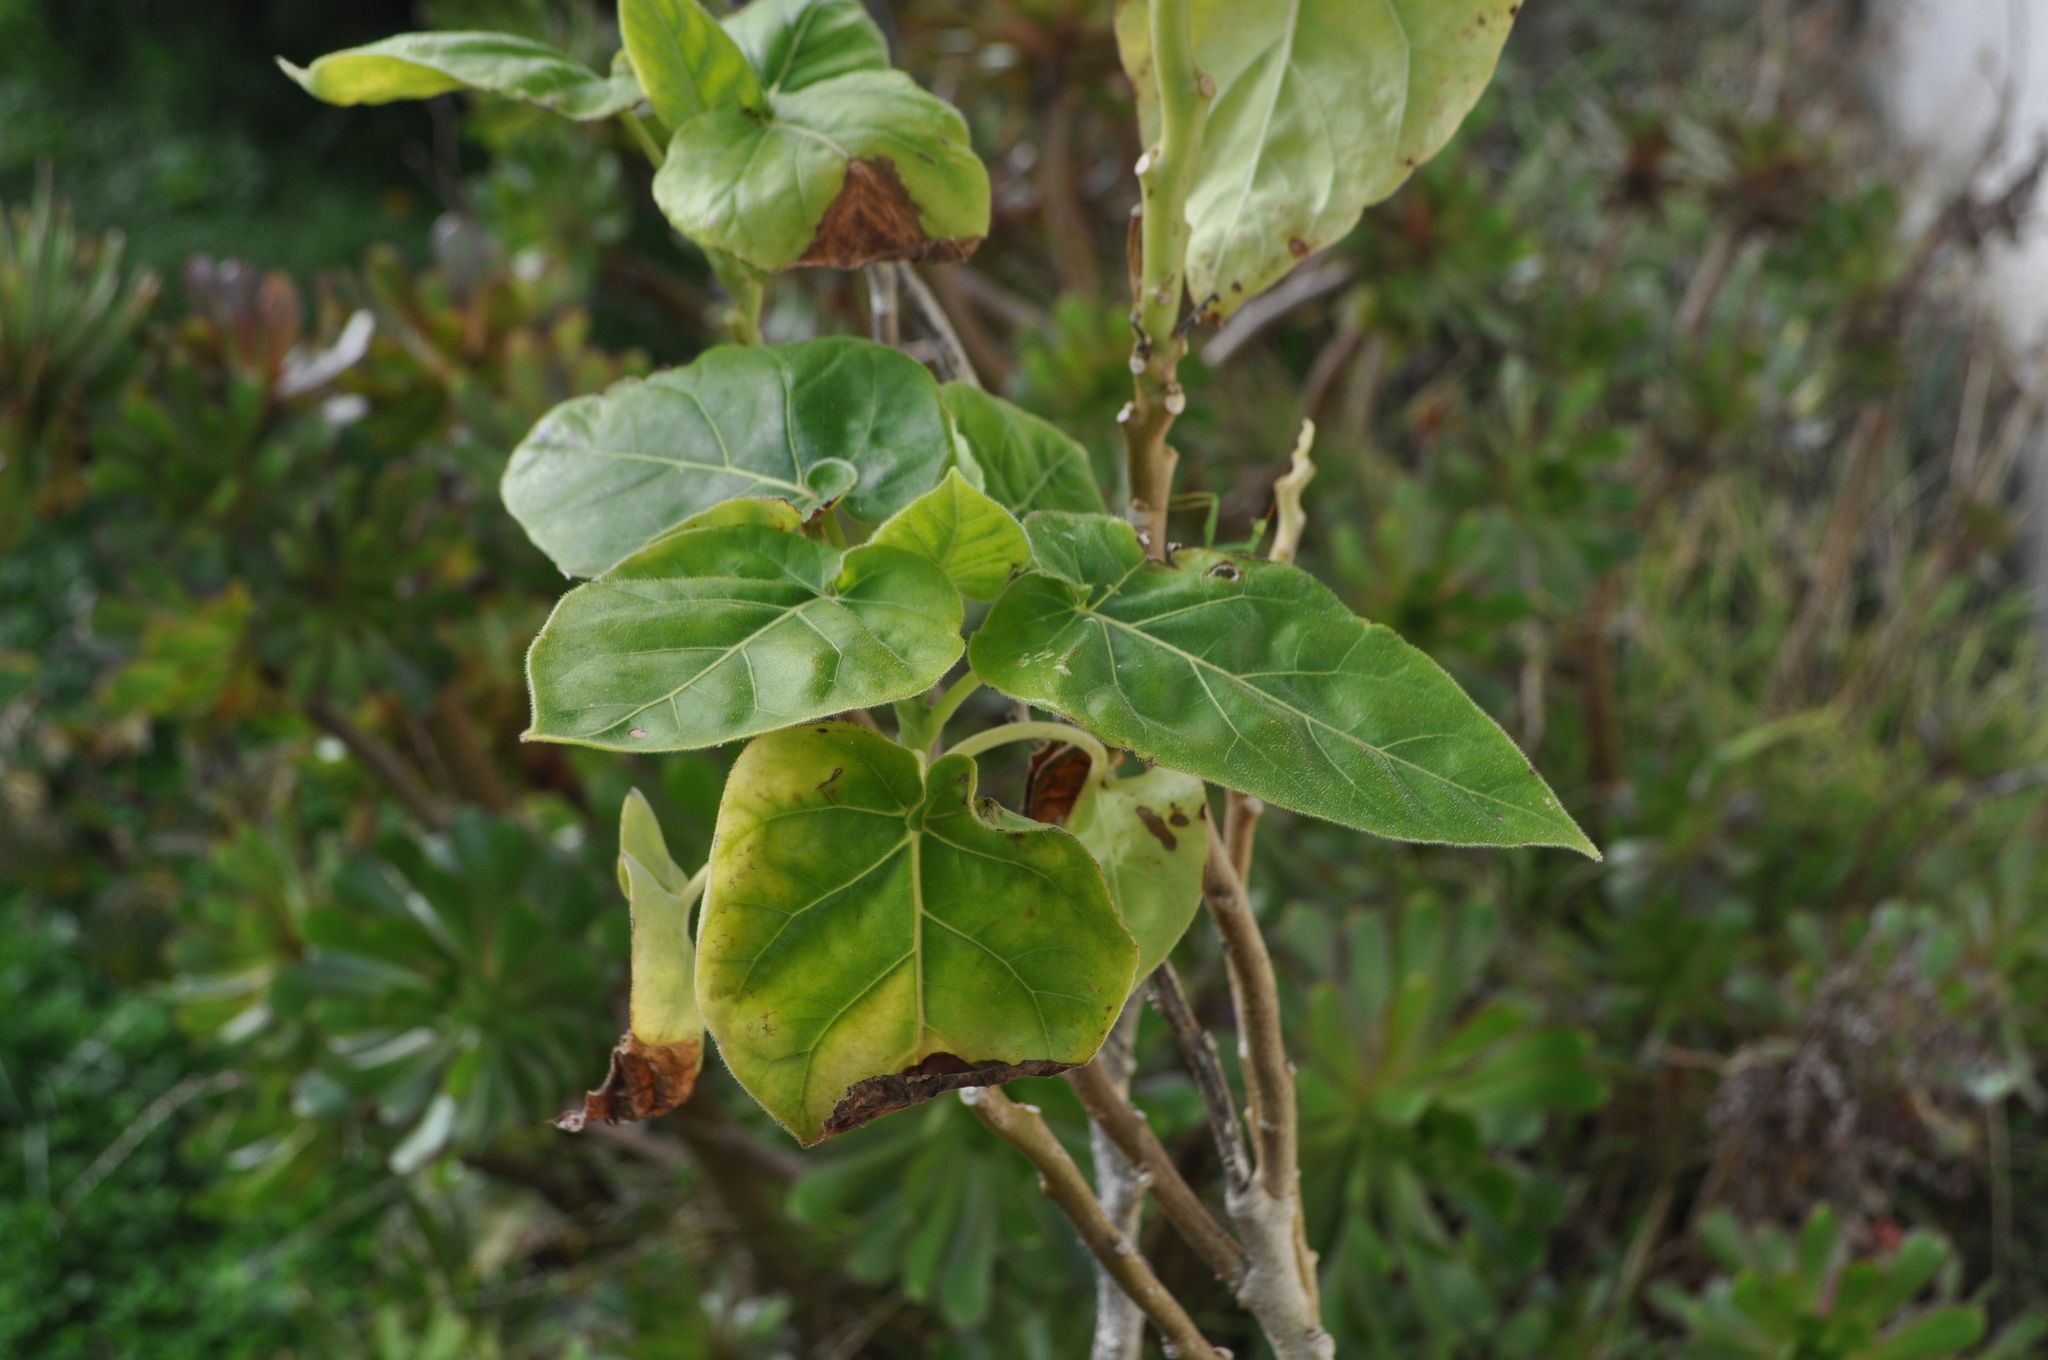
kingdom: Plantae
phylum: Tracheophyta
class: Magnoliopsida
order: Solanales
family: Solanaceae
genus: Solanum
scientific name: Solanum betaceum
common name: Tamarillo
